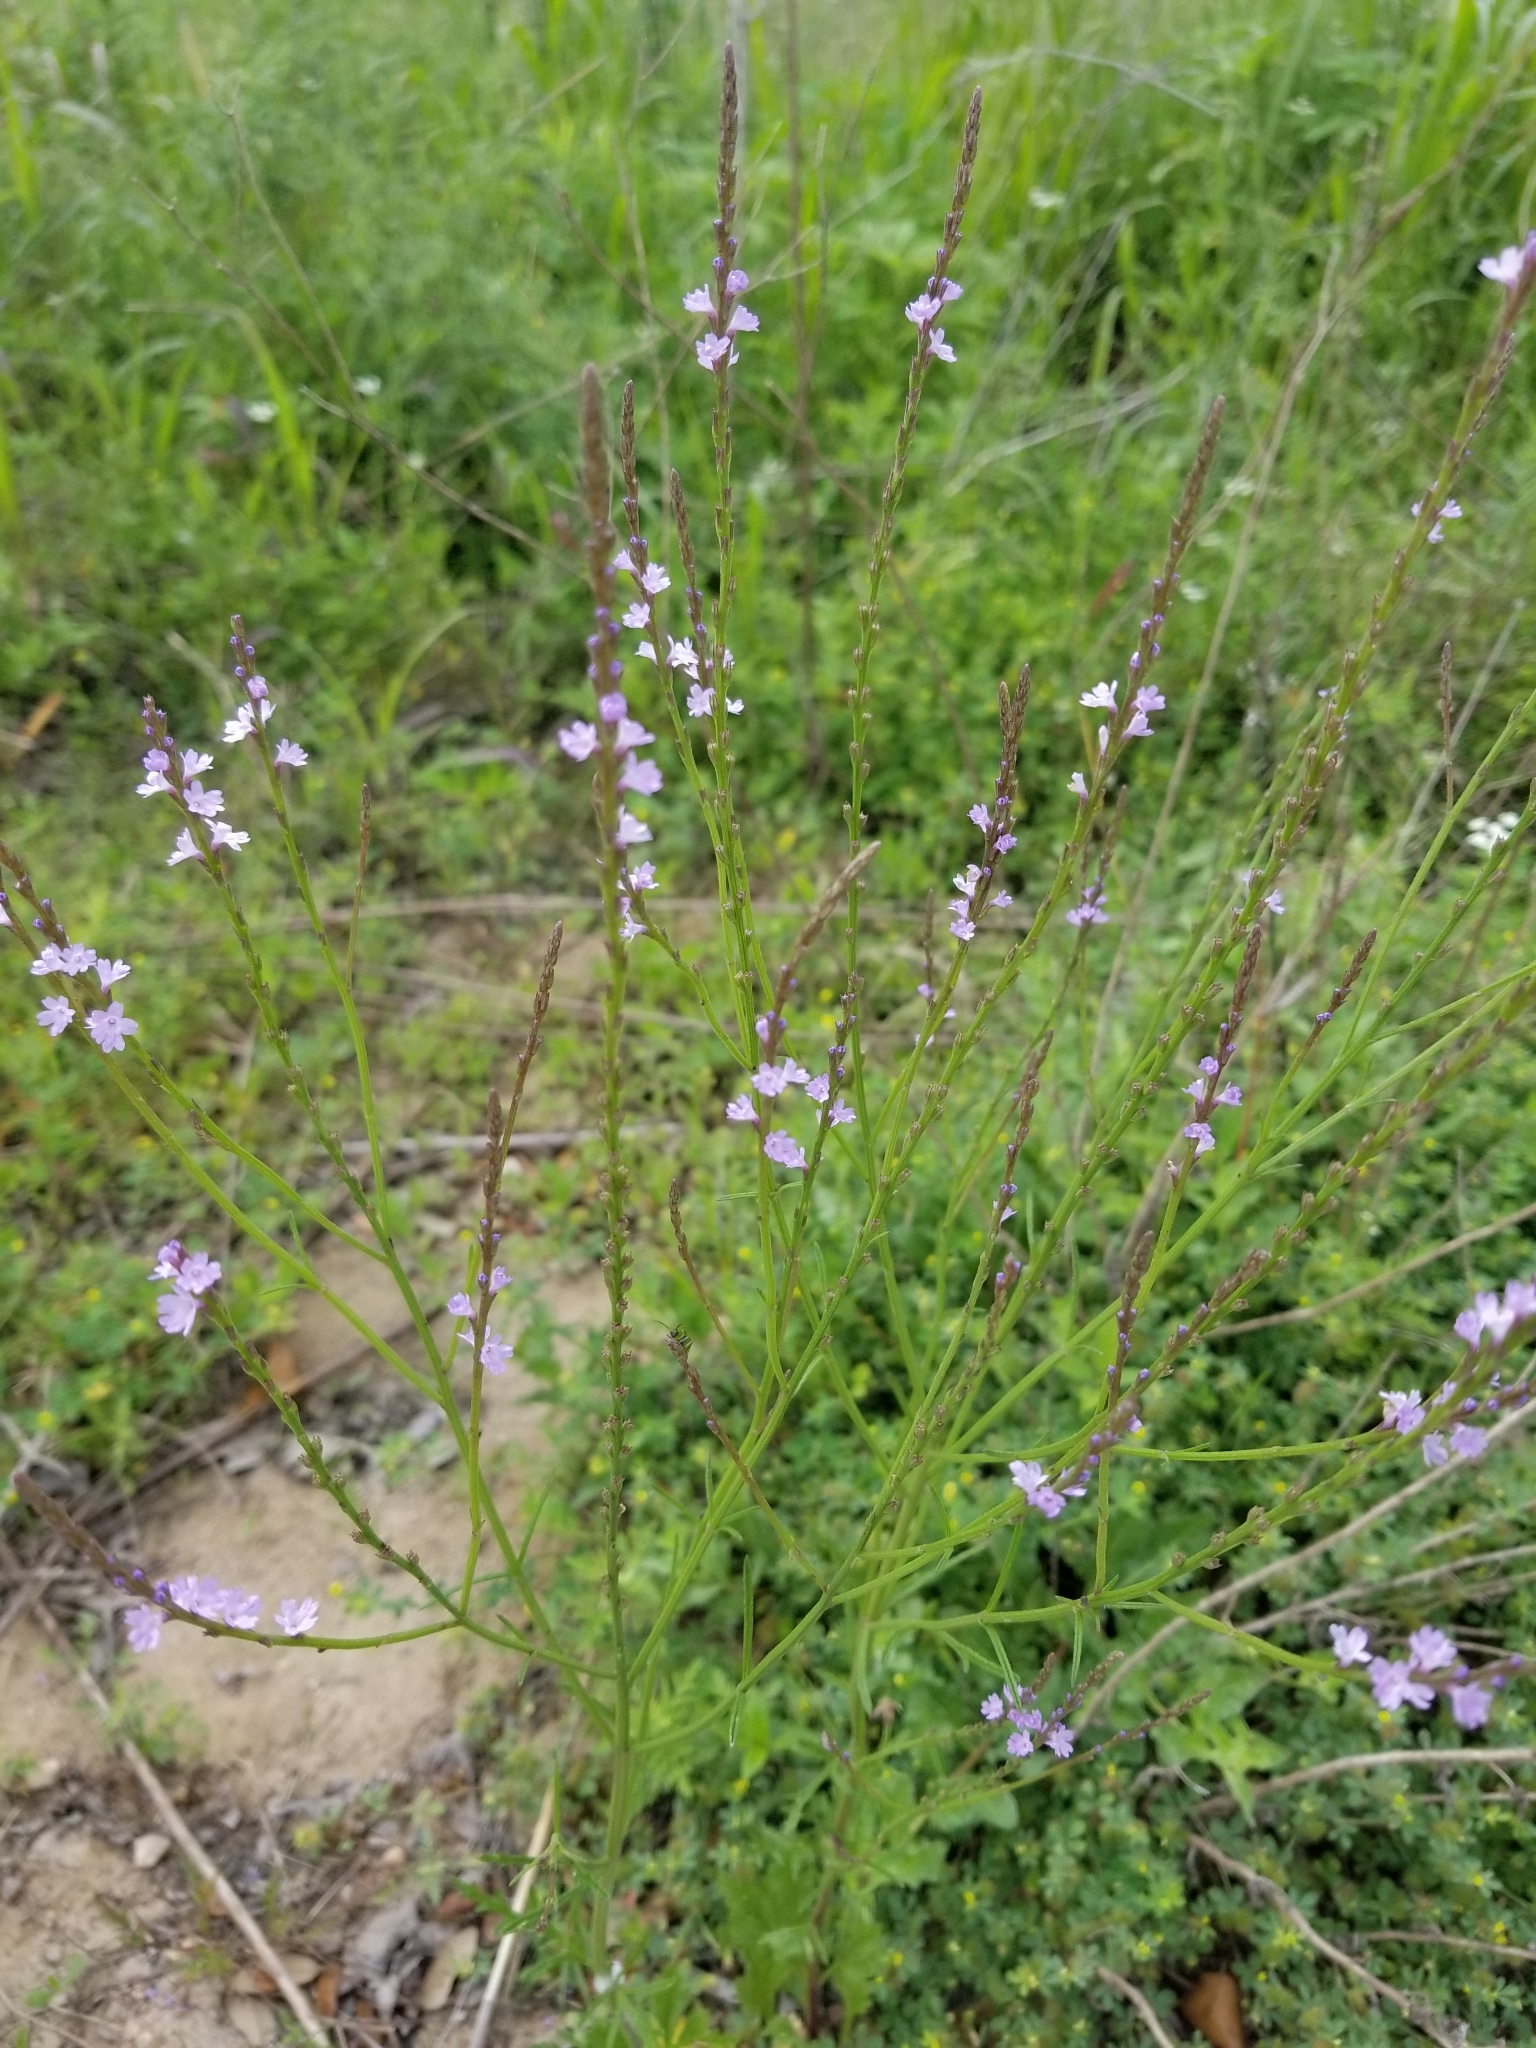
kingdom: Plantae
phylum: Tracheophyta
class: Magnoliopsida
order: Lamiales
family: Verbenaceae
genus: Verbena
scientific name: Verbena halei
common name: Texas vervain
